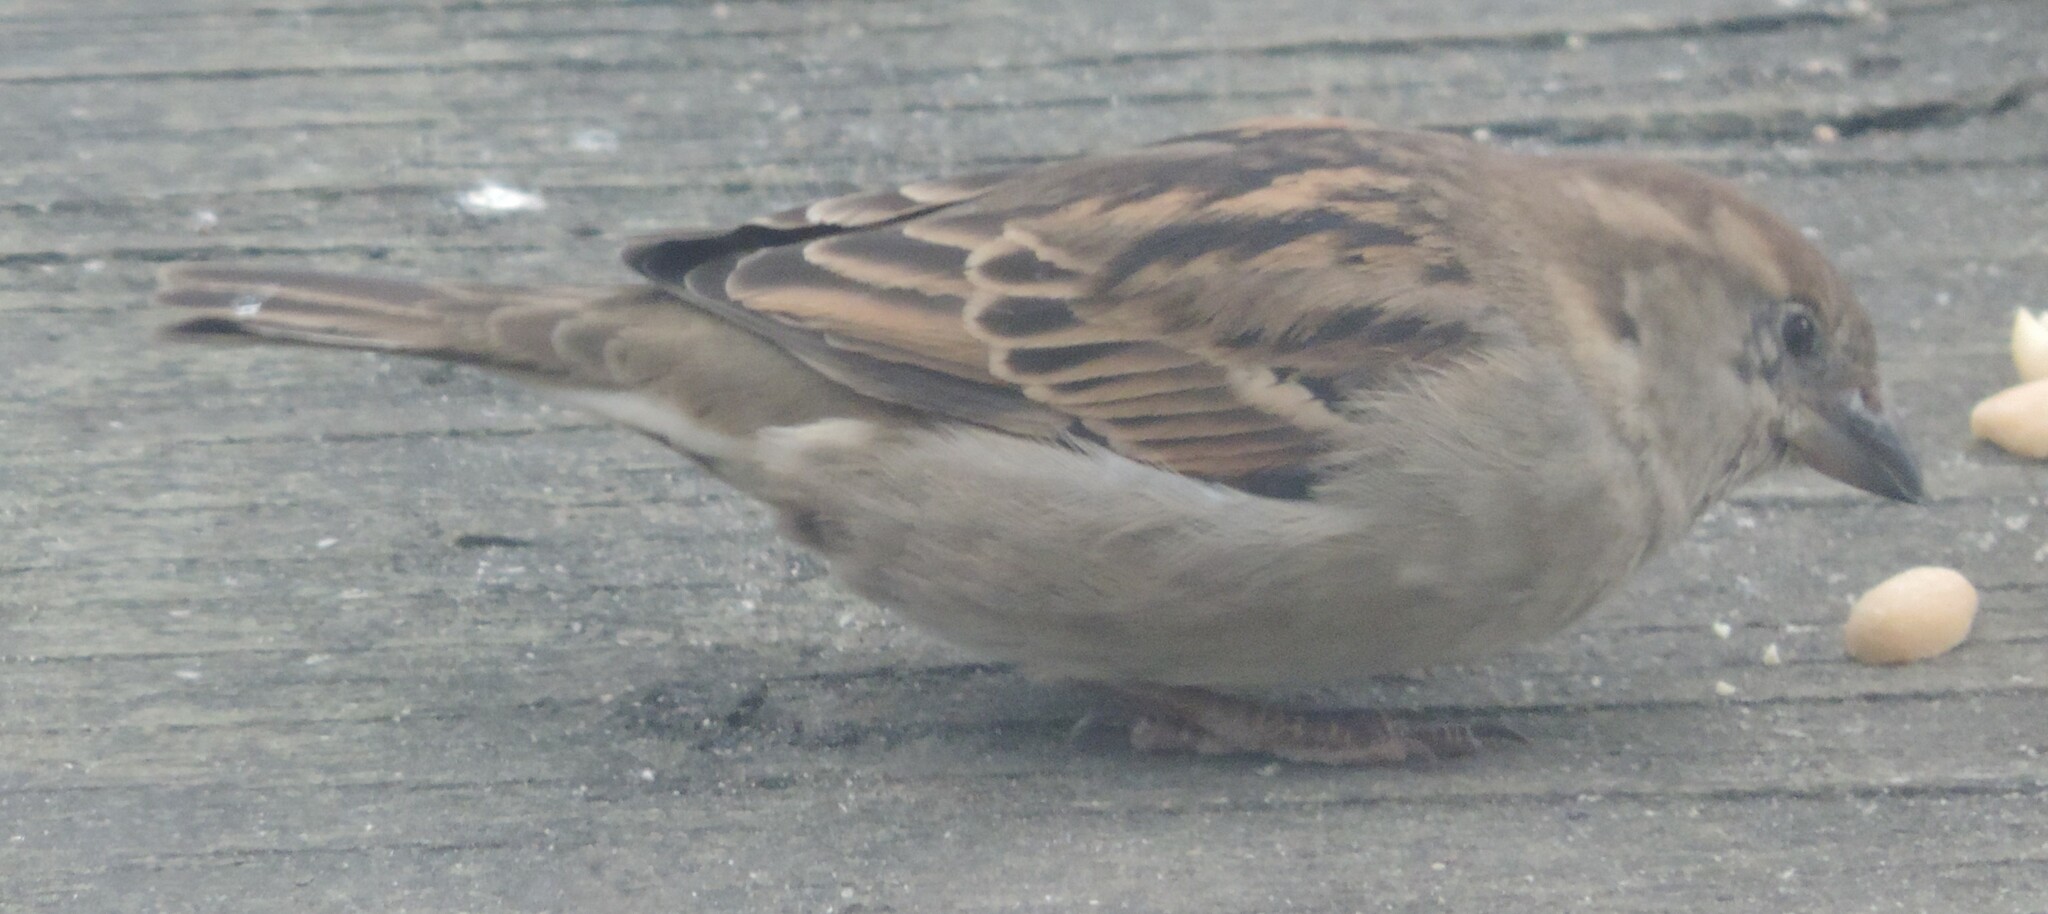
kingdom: Animalia
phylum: Chordata
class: Aves
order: Passeriformes
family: Passeridae
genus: Passer
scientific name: Passer domesticus
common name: House sparrow
